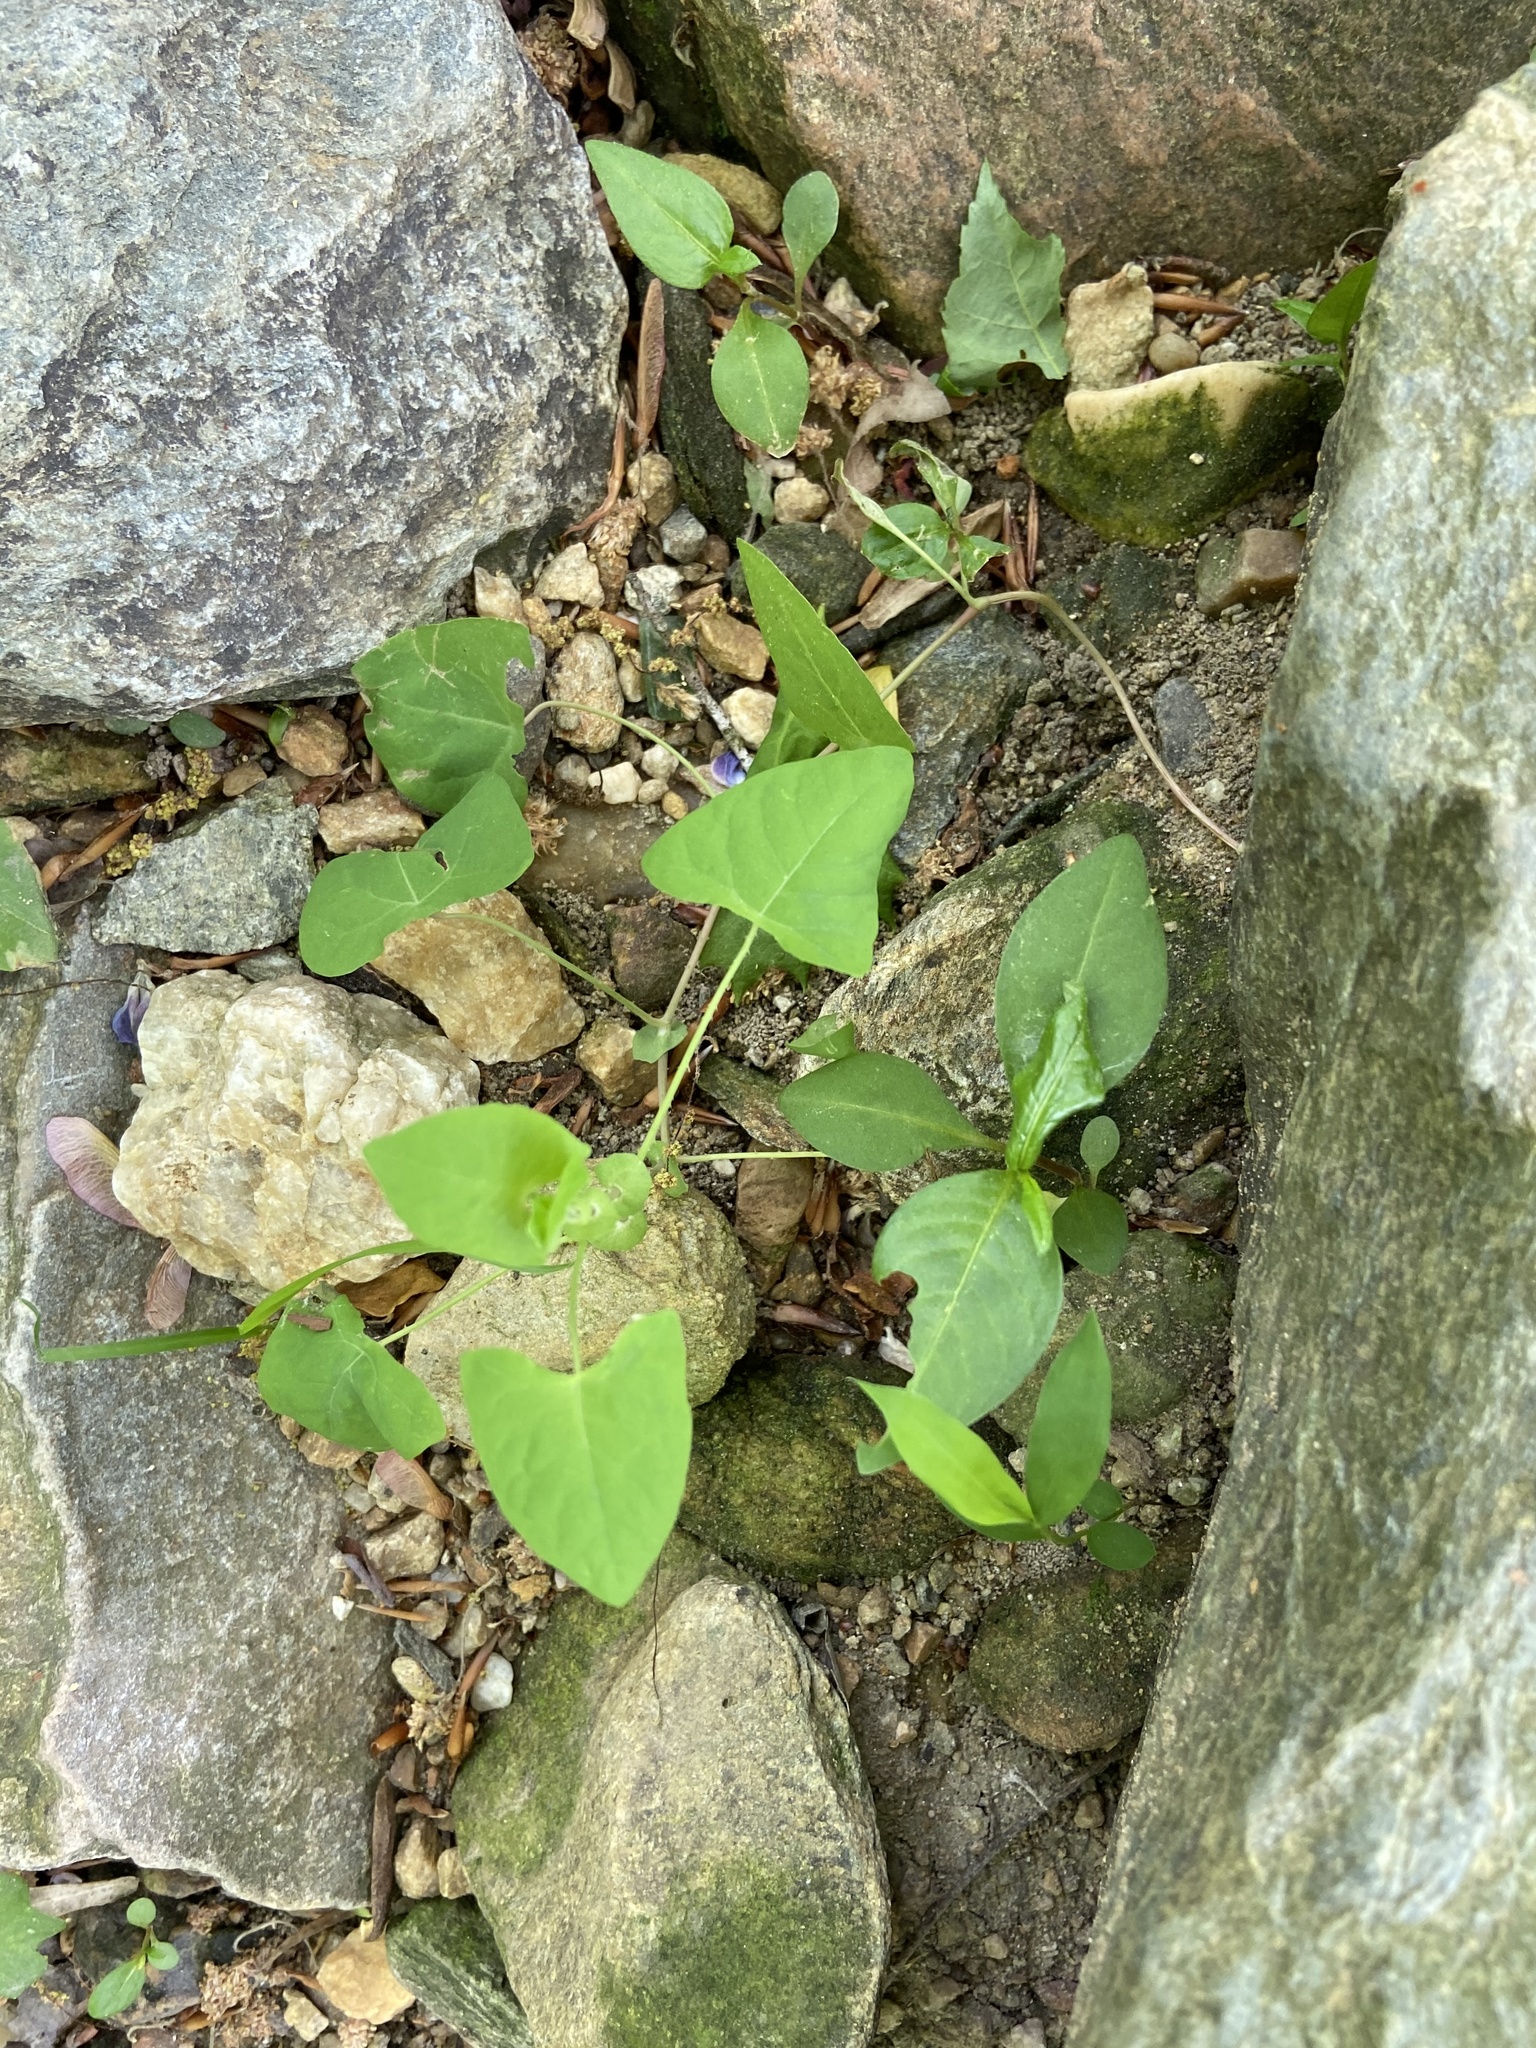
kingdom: Plantae
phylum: Tracheophyta
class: Magnoliopsida
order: Caryophyllales
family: Polygonaceae
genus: Persicaria
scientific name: Persicaria perfoliata
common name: Asiatic tearthumb
